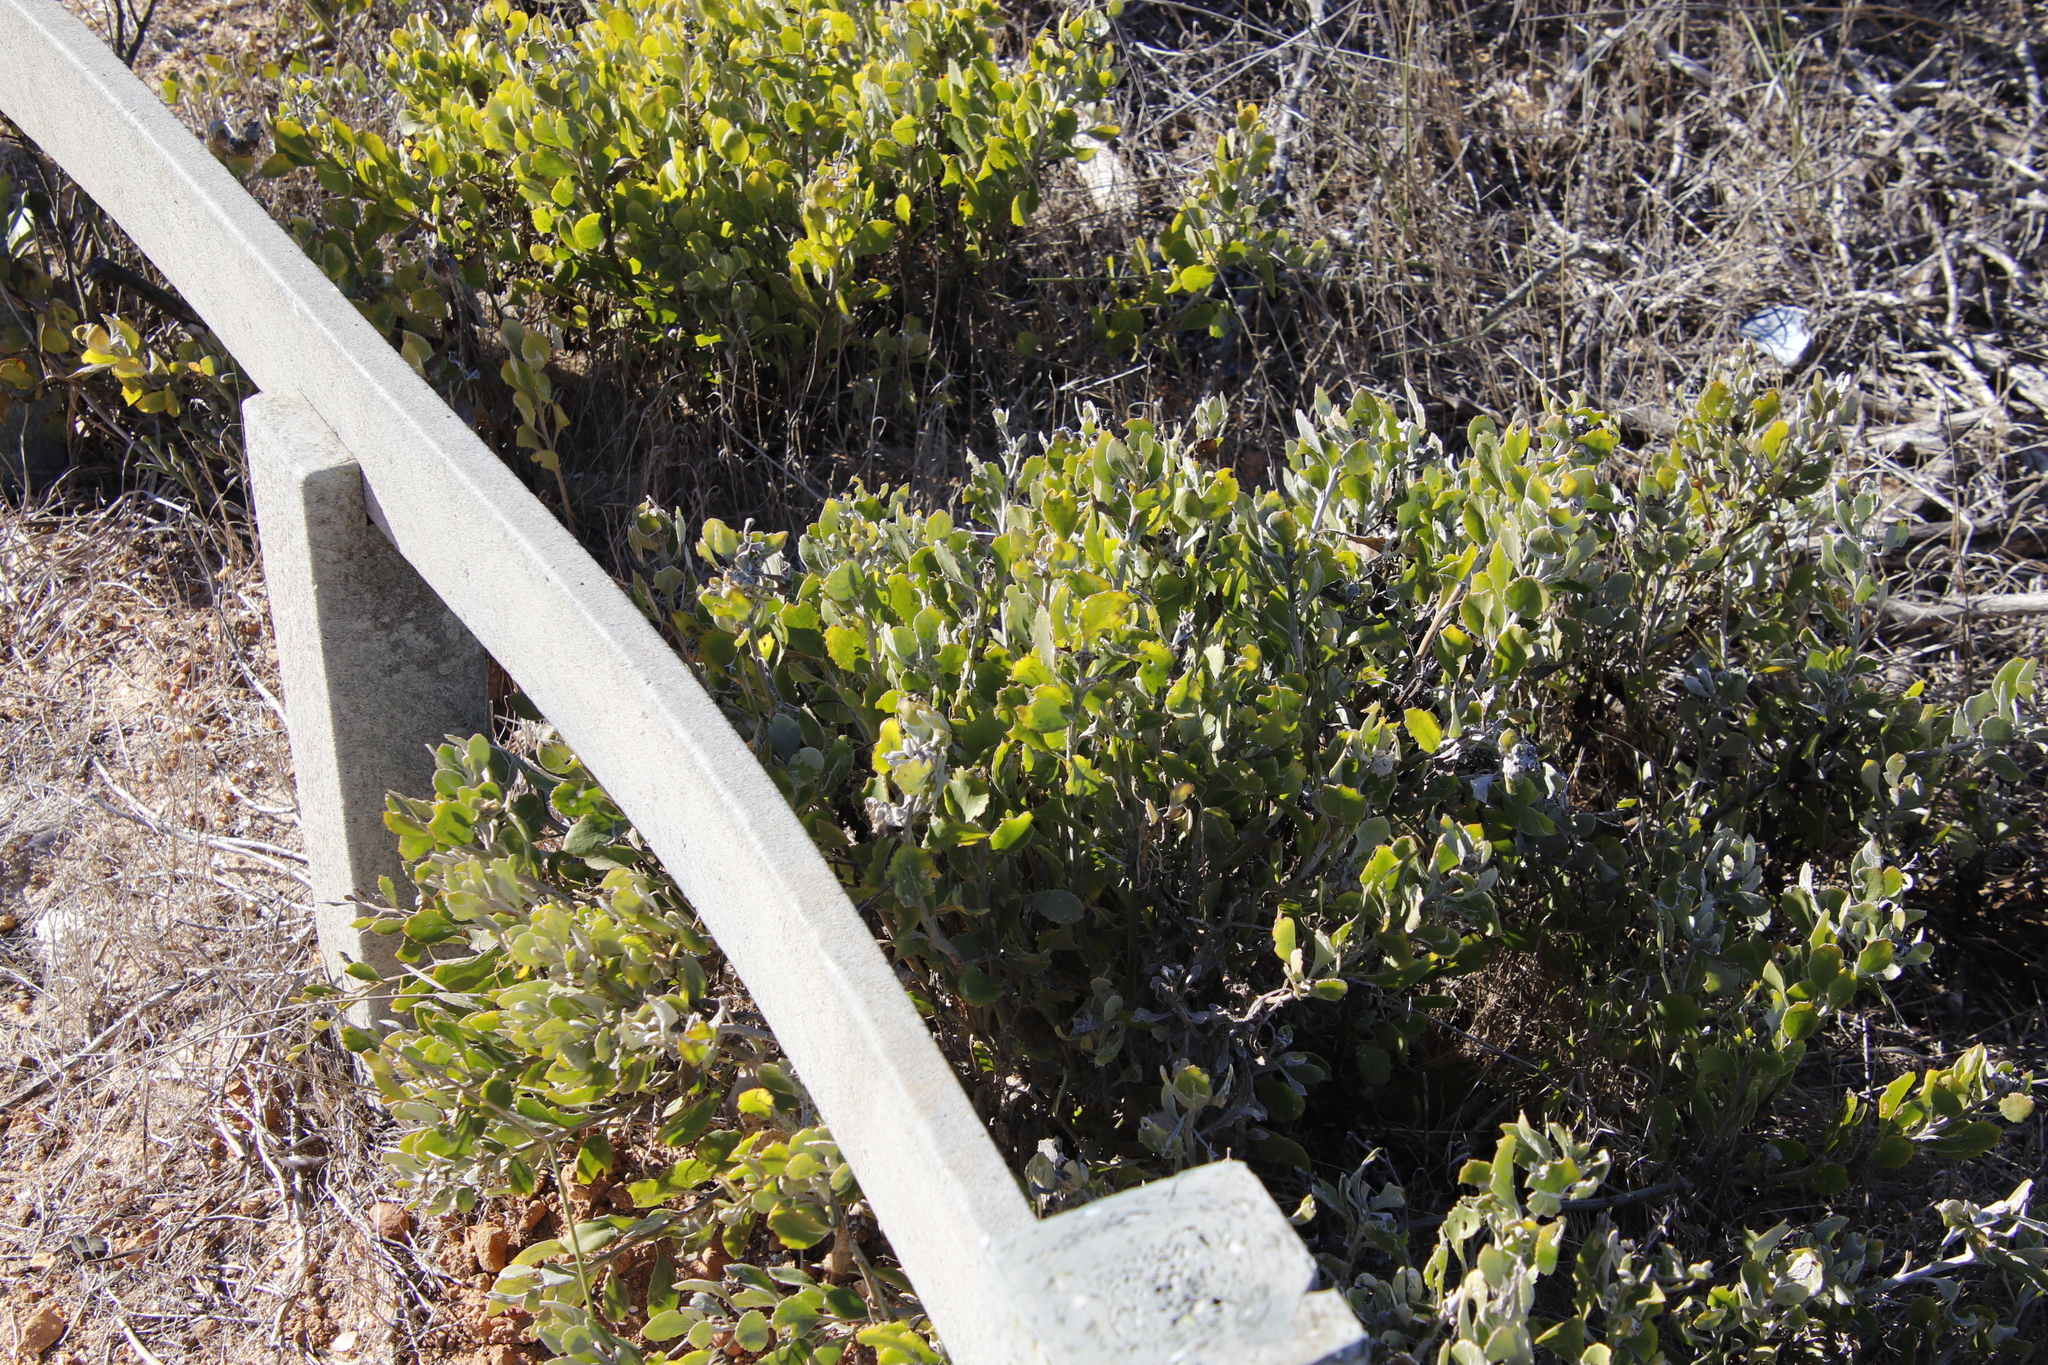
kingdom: Plantae
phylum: Tracheophyta
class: Magnoliopsida
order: Asterales
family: Asteraceae
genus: Osteospermum
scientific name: Osteospermum moniliferum
